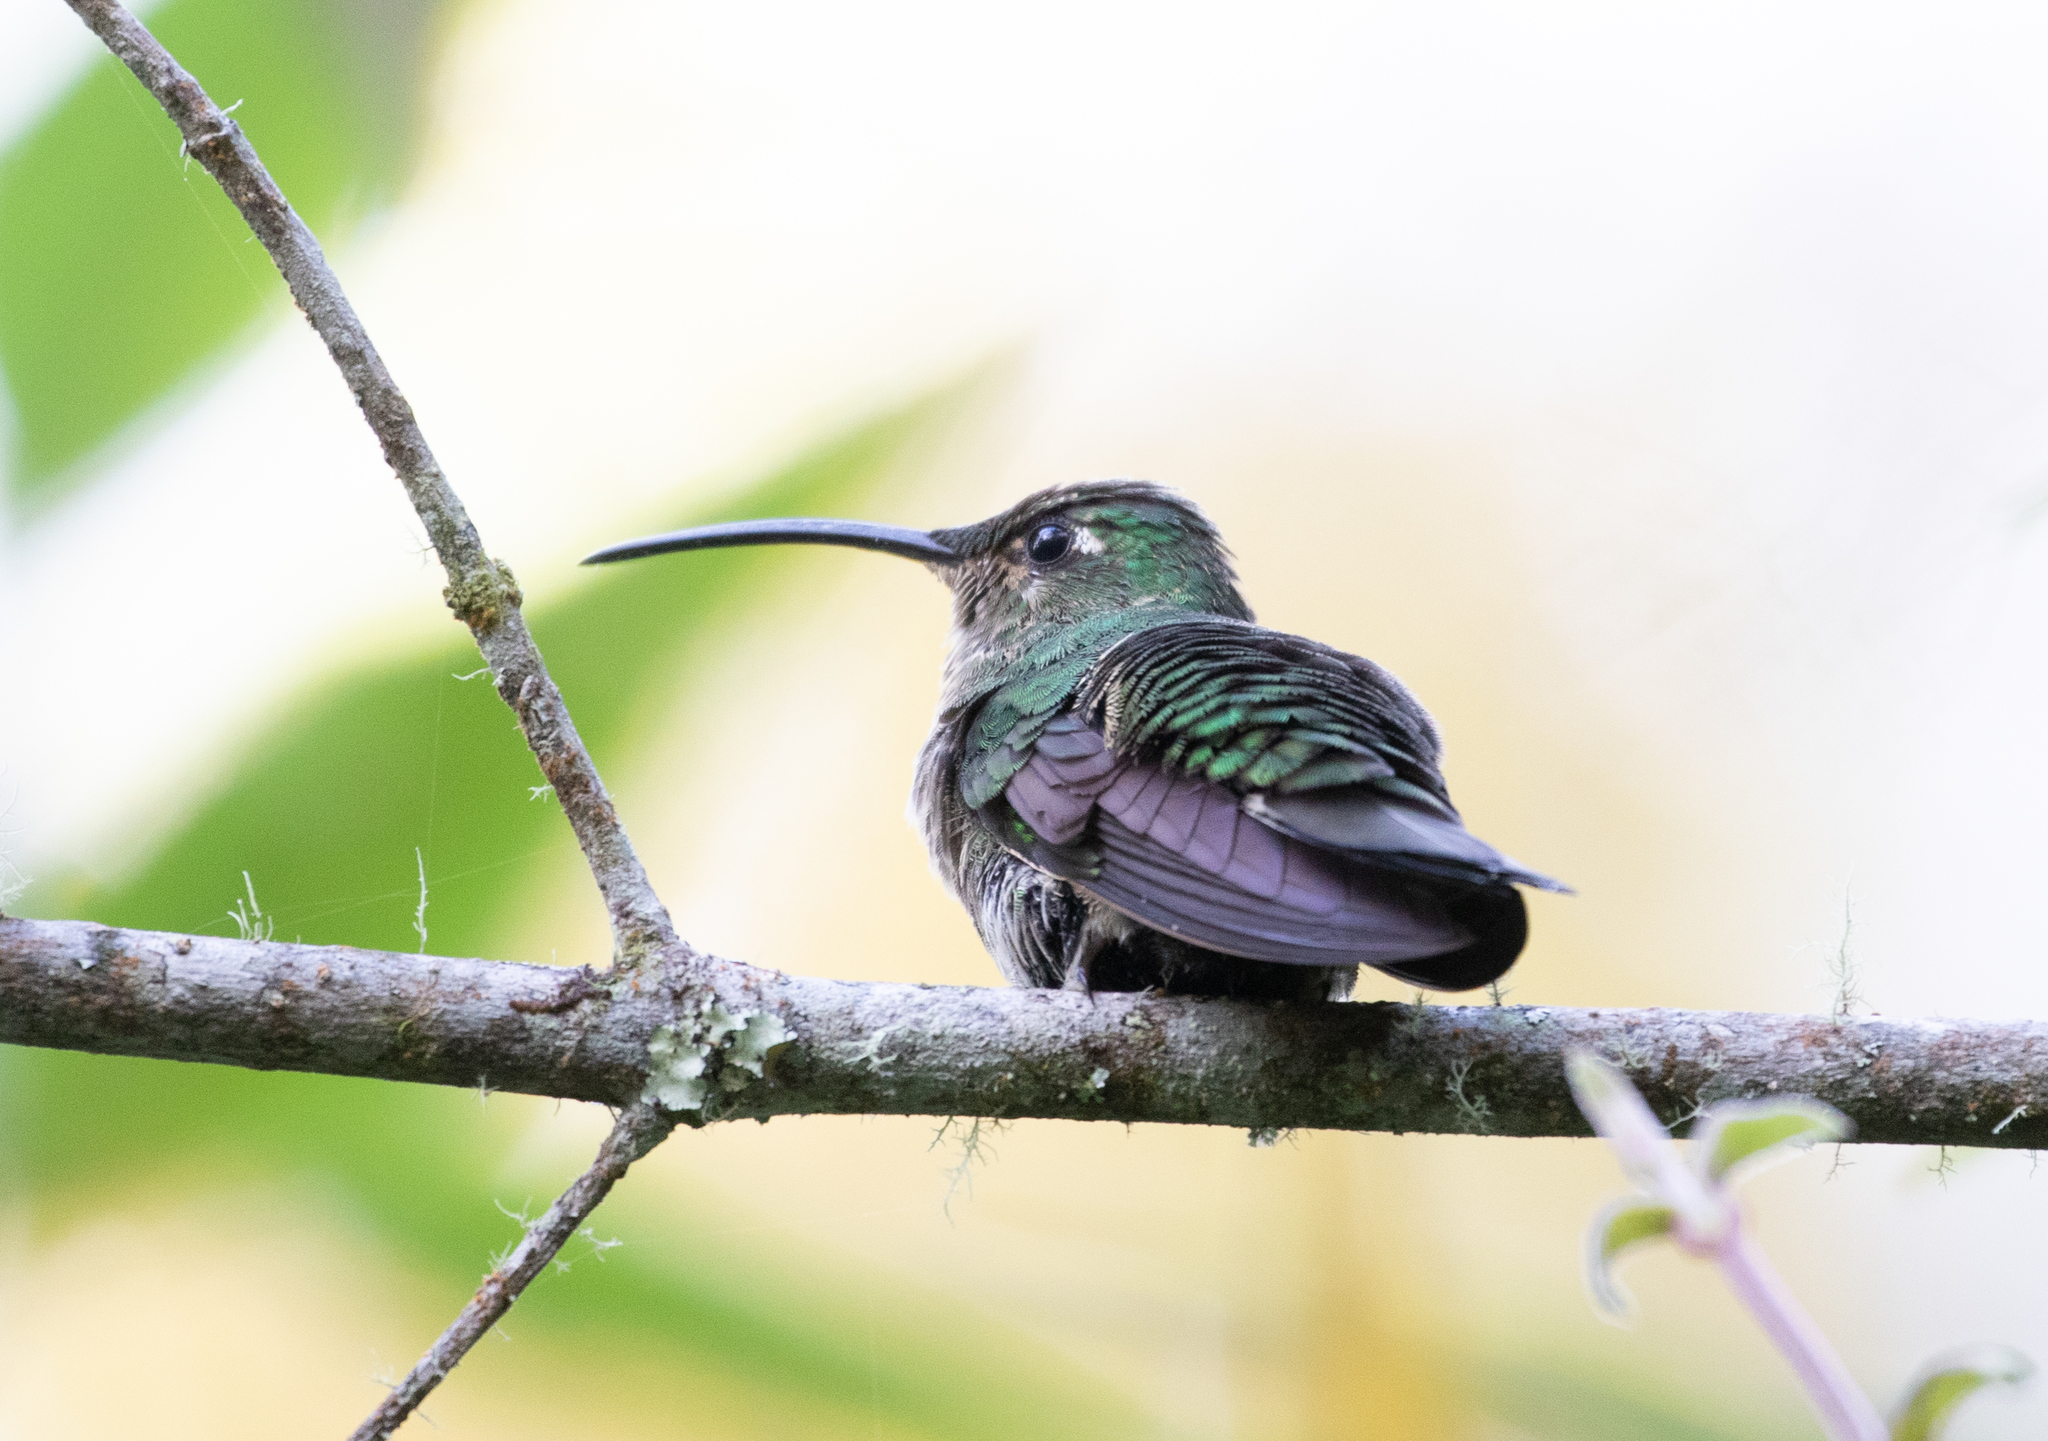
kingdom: Animalia
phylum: Chordata
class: Aves
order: Apodiformes
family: Trochilidae
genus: Lafresnaya
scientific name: Lafresnaya lafresnayi
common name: Mountain velvetbreast
